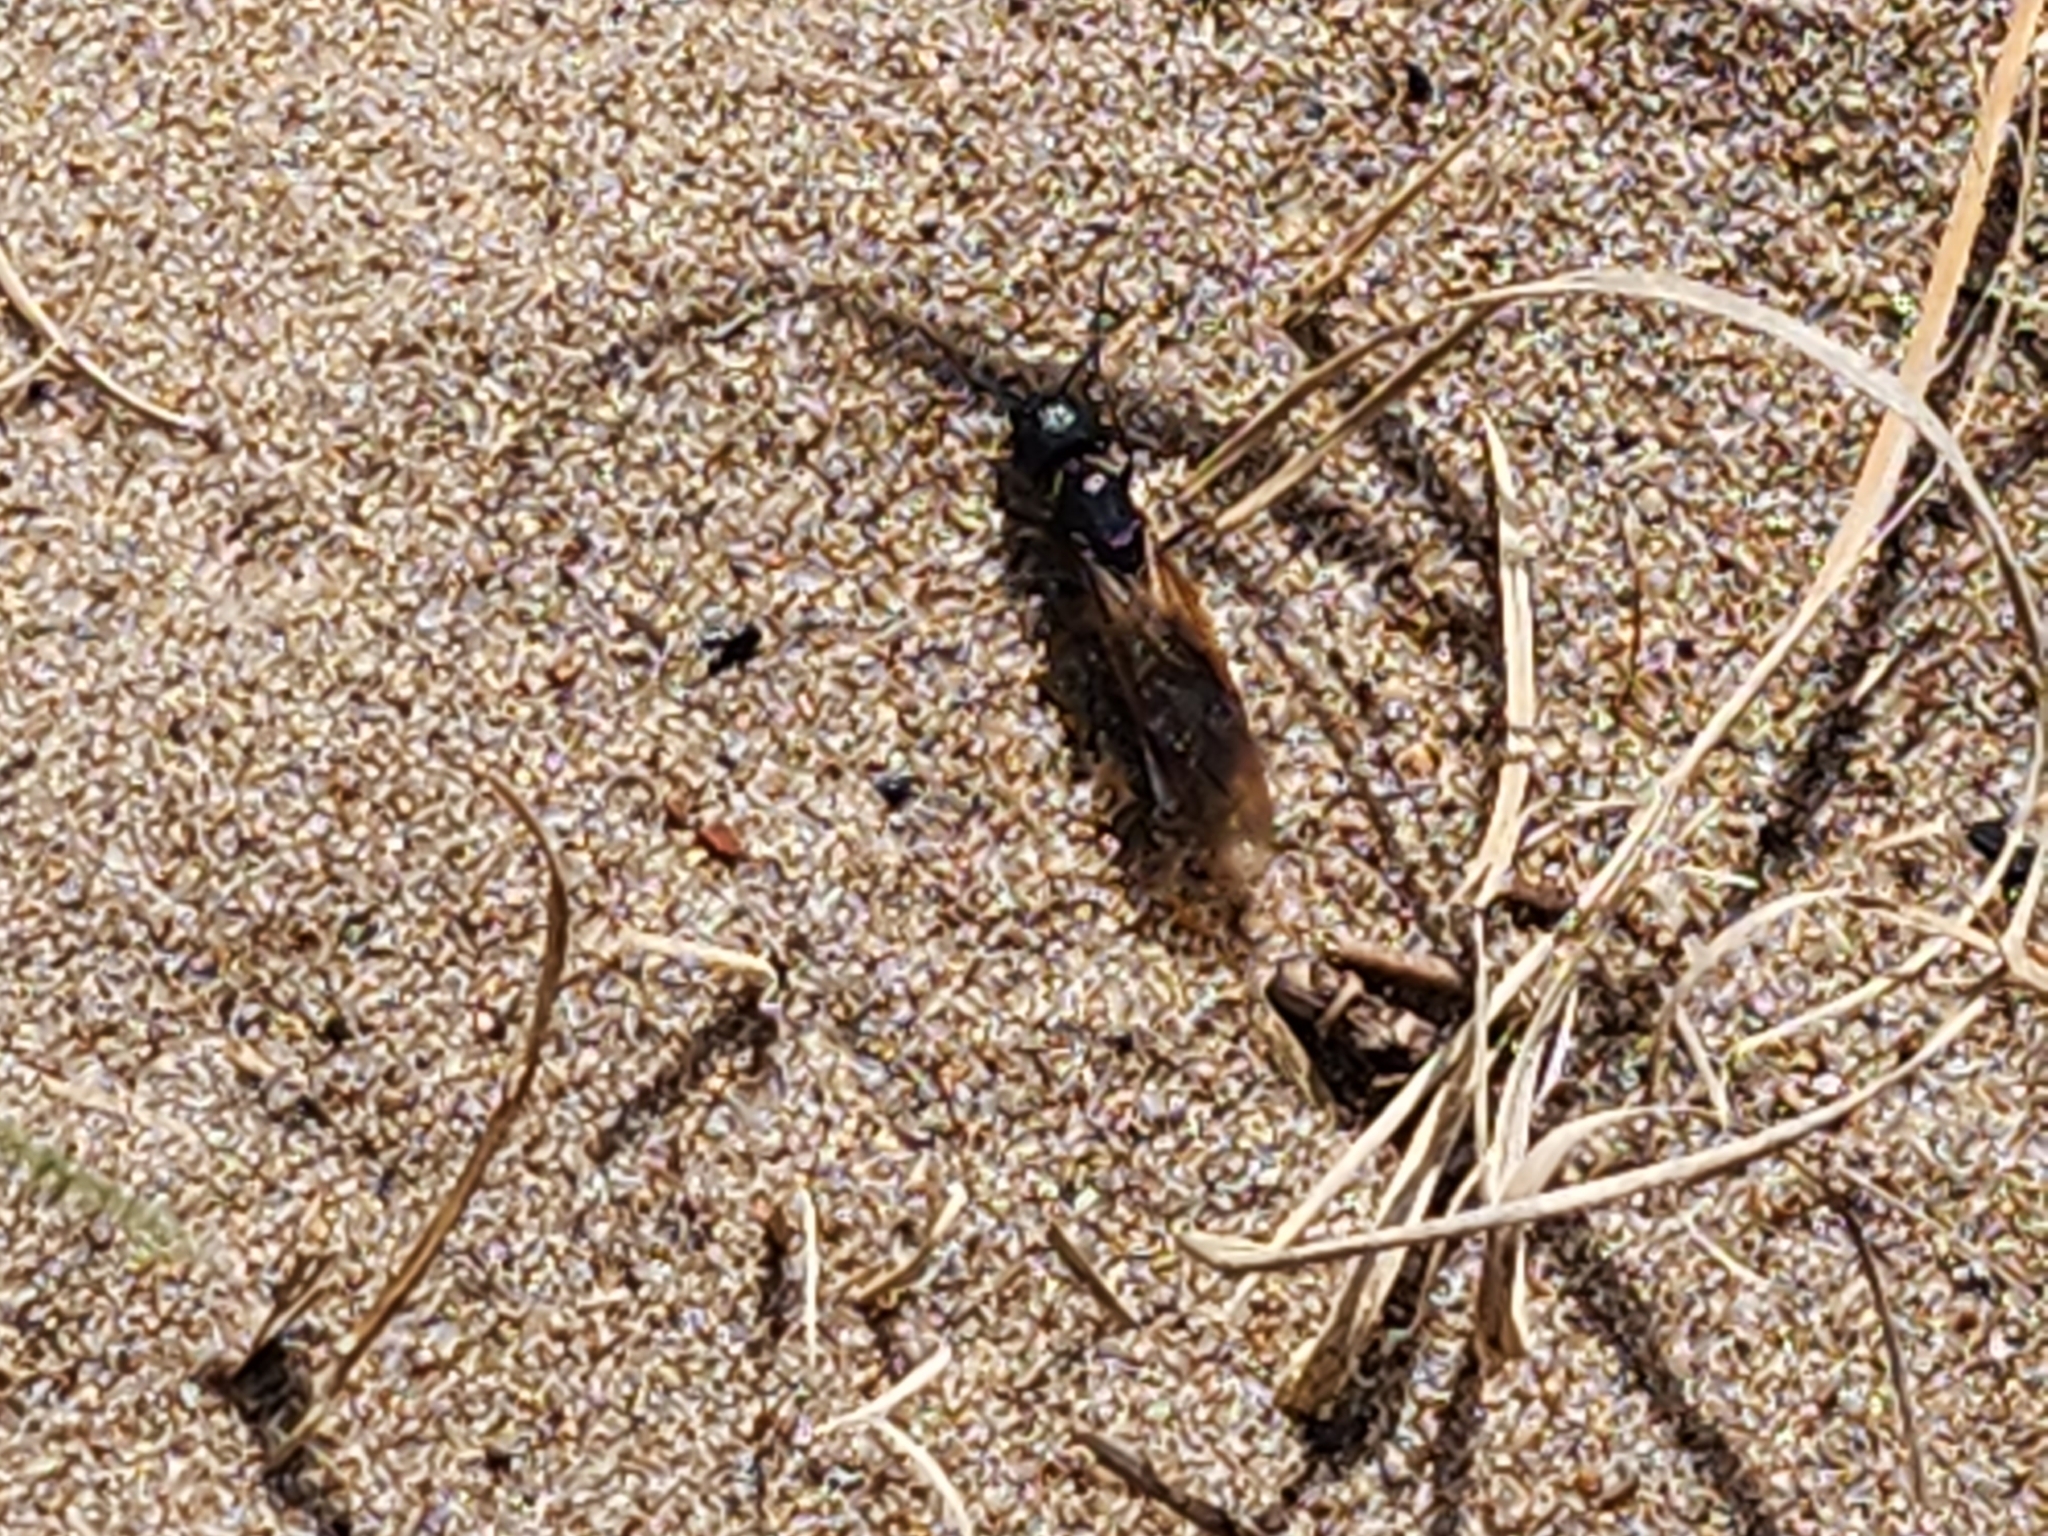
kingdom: Animalia
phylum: Arthropoda
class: Insecta
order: Hymenoptera
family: Formicidae
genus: Camponotus
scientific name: Camponotus pennsylvanicus
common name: Black carpenter ant
